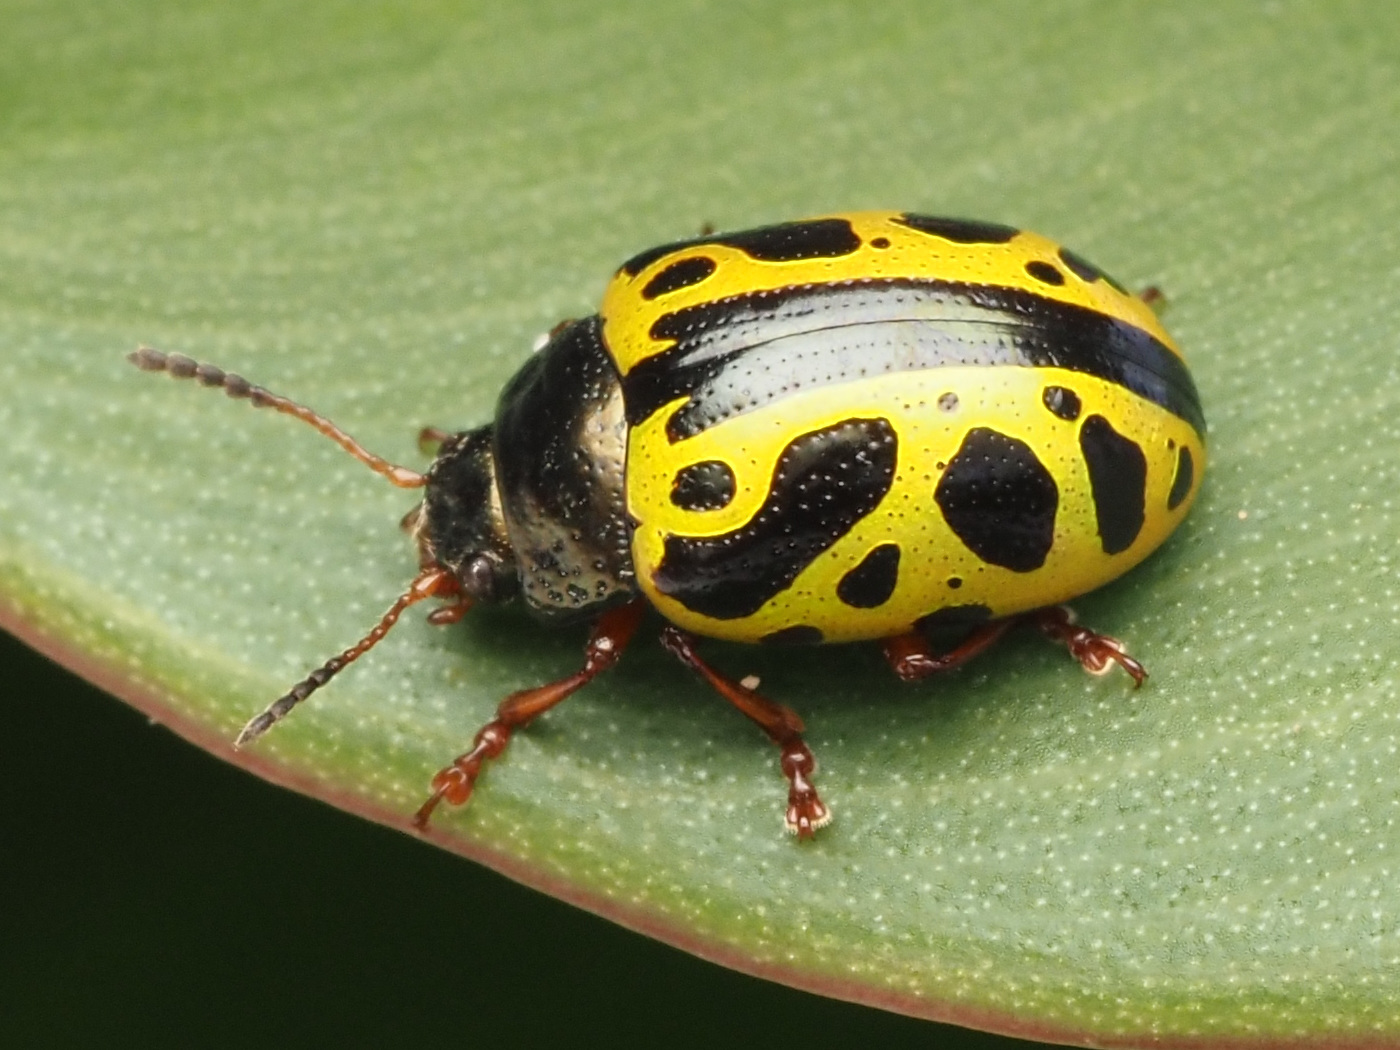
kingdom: Animalia
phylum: Arthropoda
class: Insecta
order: Coleoptera
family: Chrysomelidae
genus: Calligrapha
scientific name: Calligrapha fulvipes
